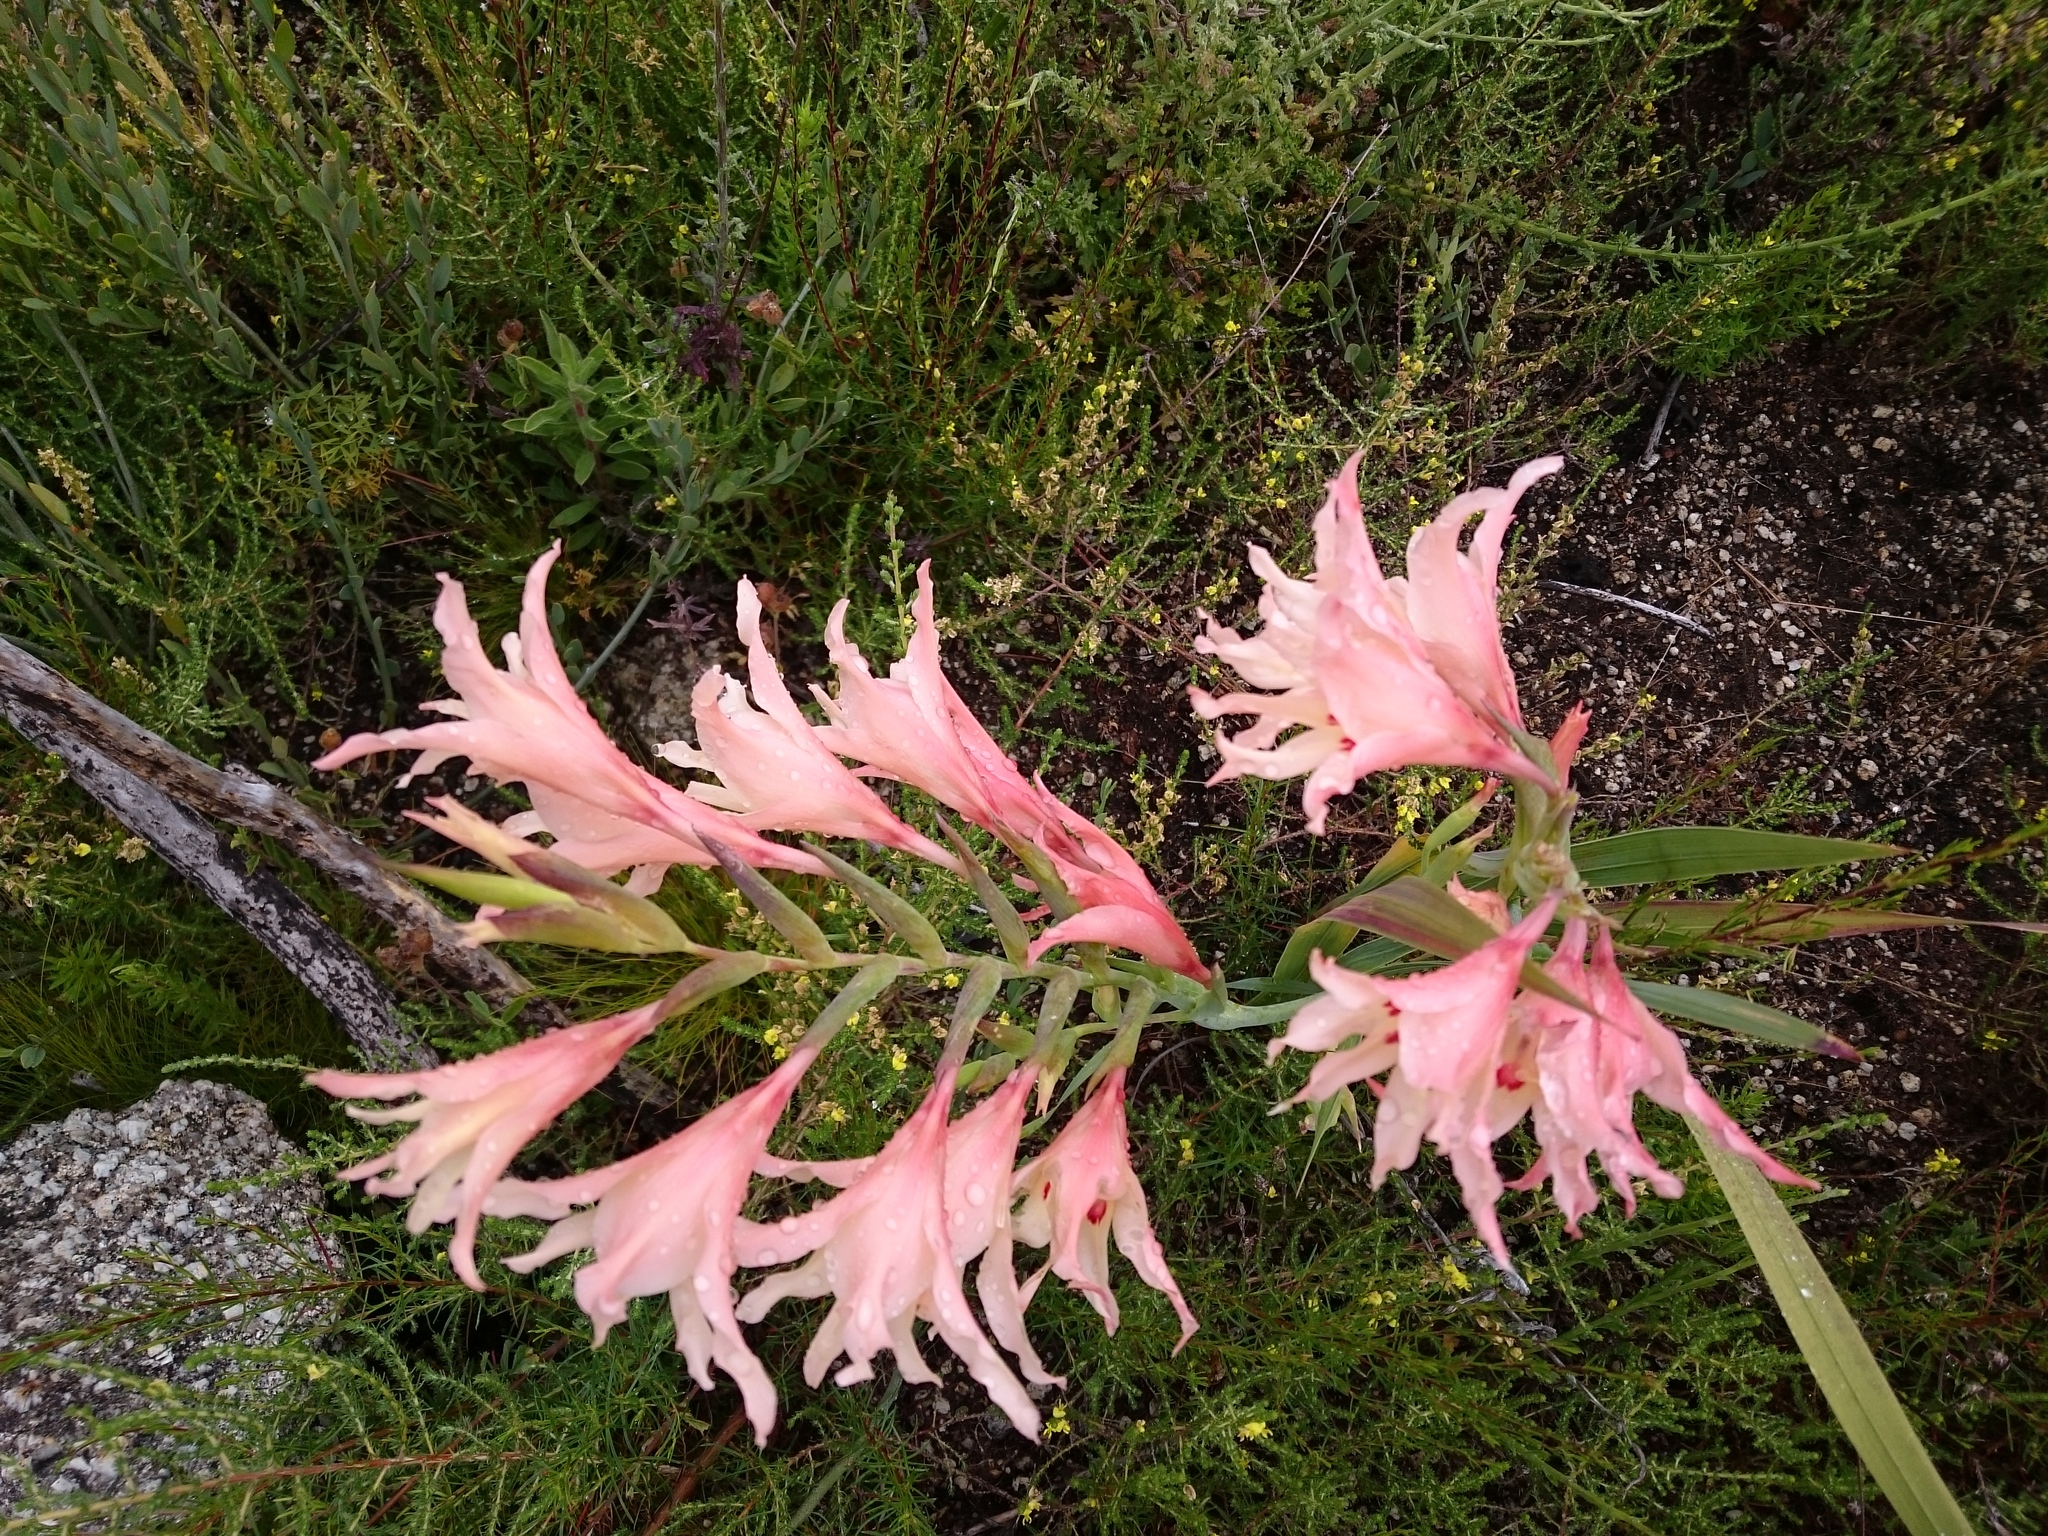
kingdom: Plantae
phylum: Tracheophyta
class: Liliopsida
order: Asparagales
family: Iridaceae
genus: Gladiolus
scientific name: Gladiolus carneus
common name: Painted-lady
